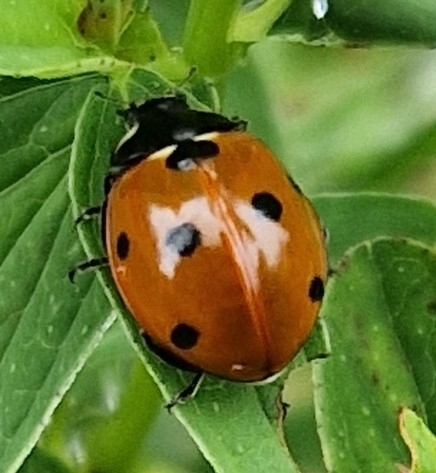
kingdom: Animalia
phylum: Arthropoda
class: Insecta
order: Coleoptera
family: Coccinellidae
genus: Coccinella
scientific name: Coccinella septempunctata
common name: Sevenspotted lady beetle
